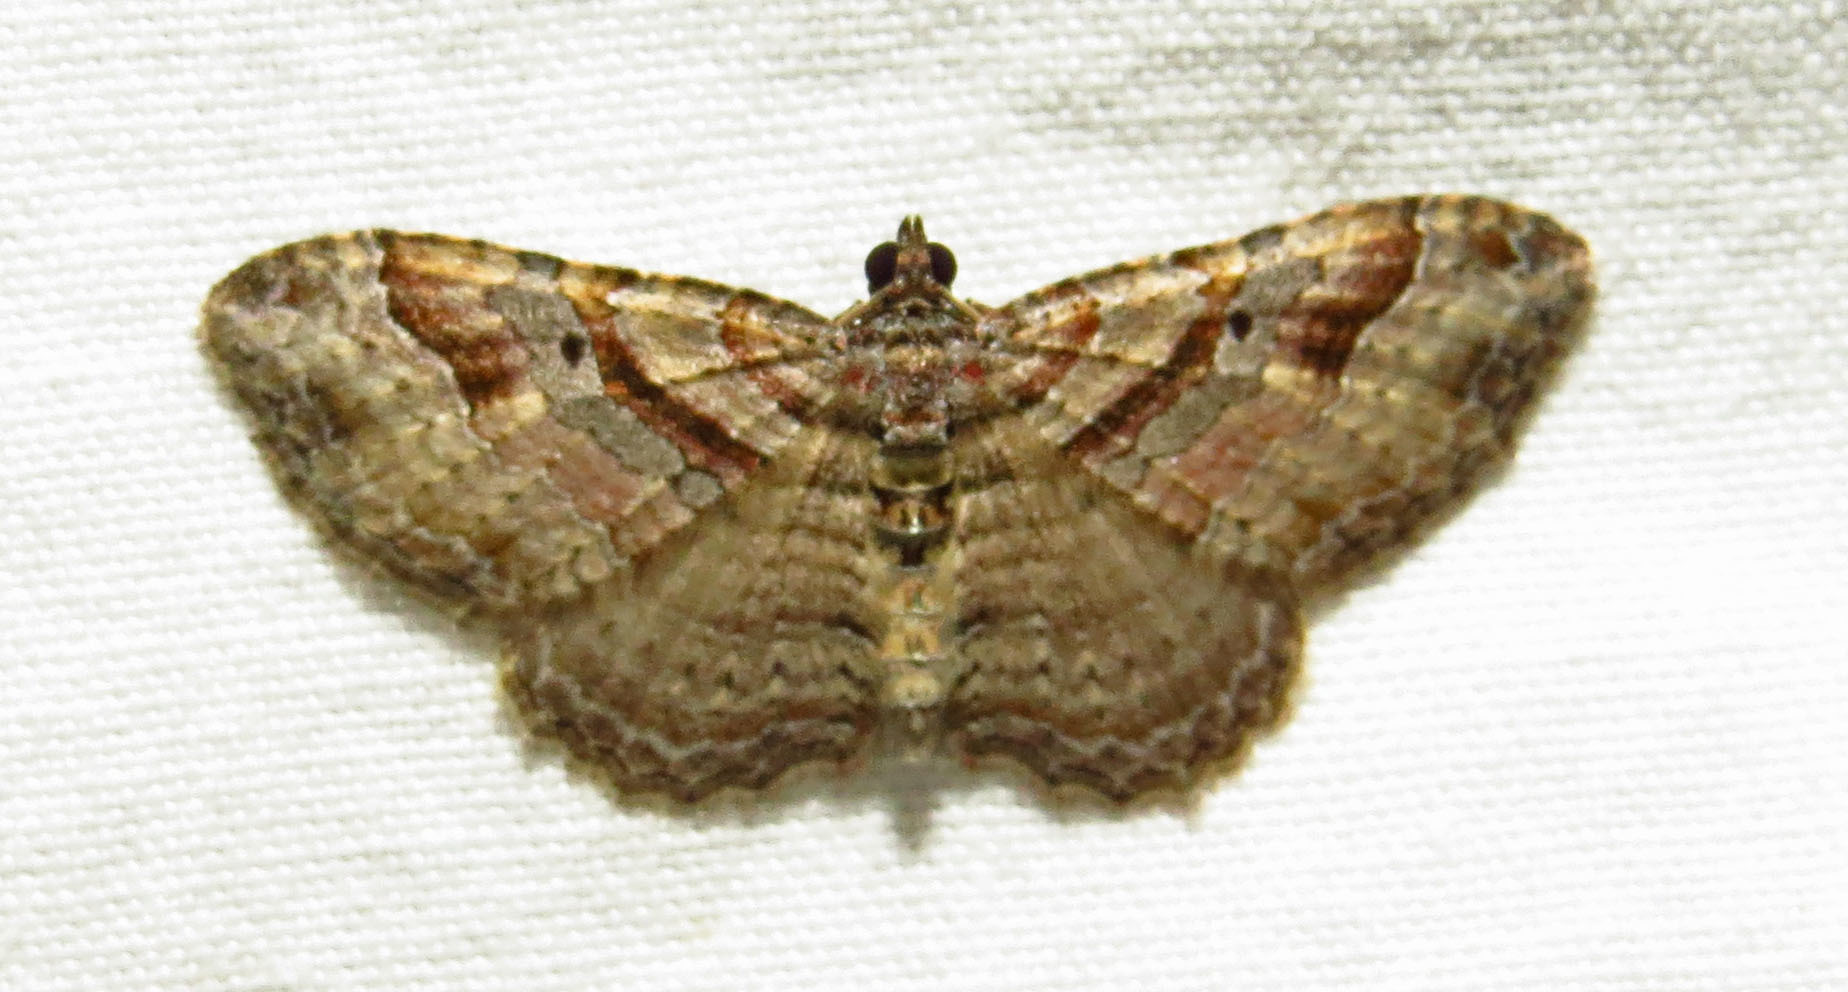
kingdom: Animalia
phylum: Arthropoda
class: Insecta
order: Lepidoptera
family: Geometridae
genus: Costaconvexa
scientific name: Costaconvexa centrostrigaria
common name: Bent-line carpet
